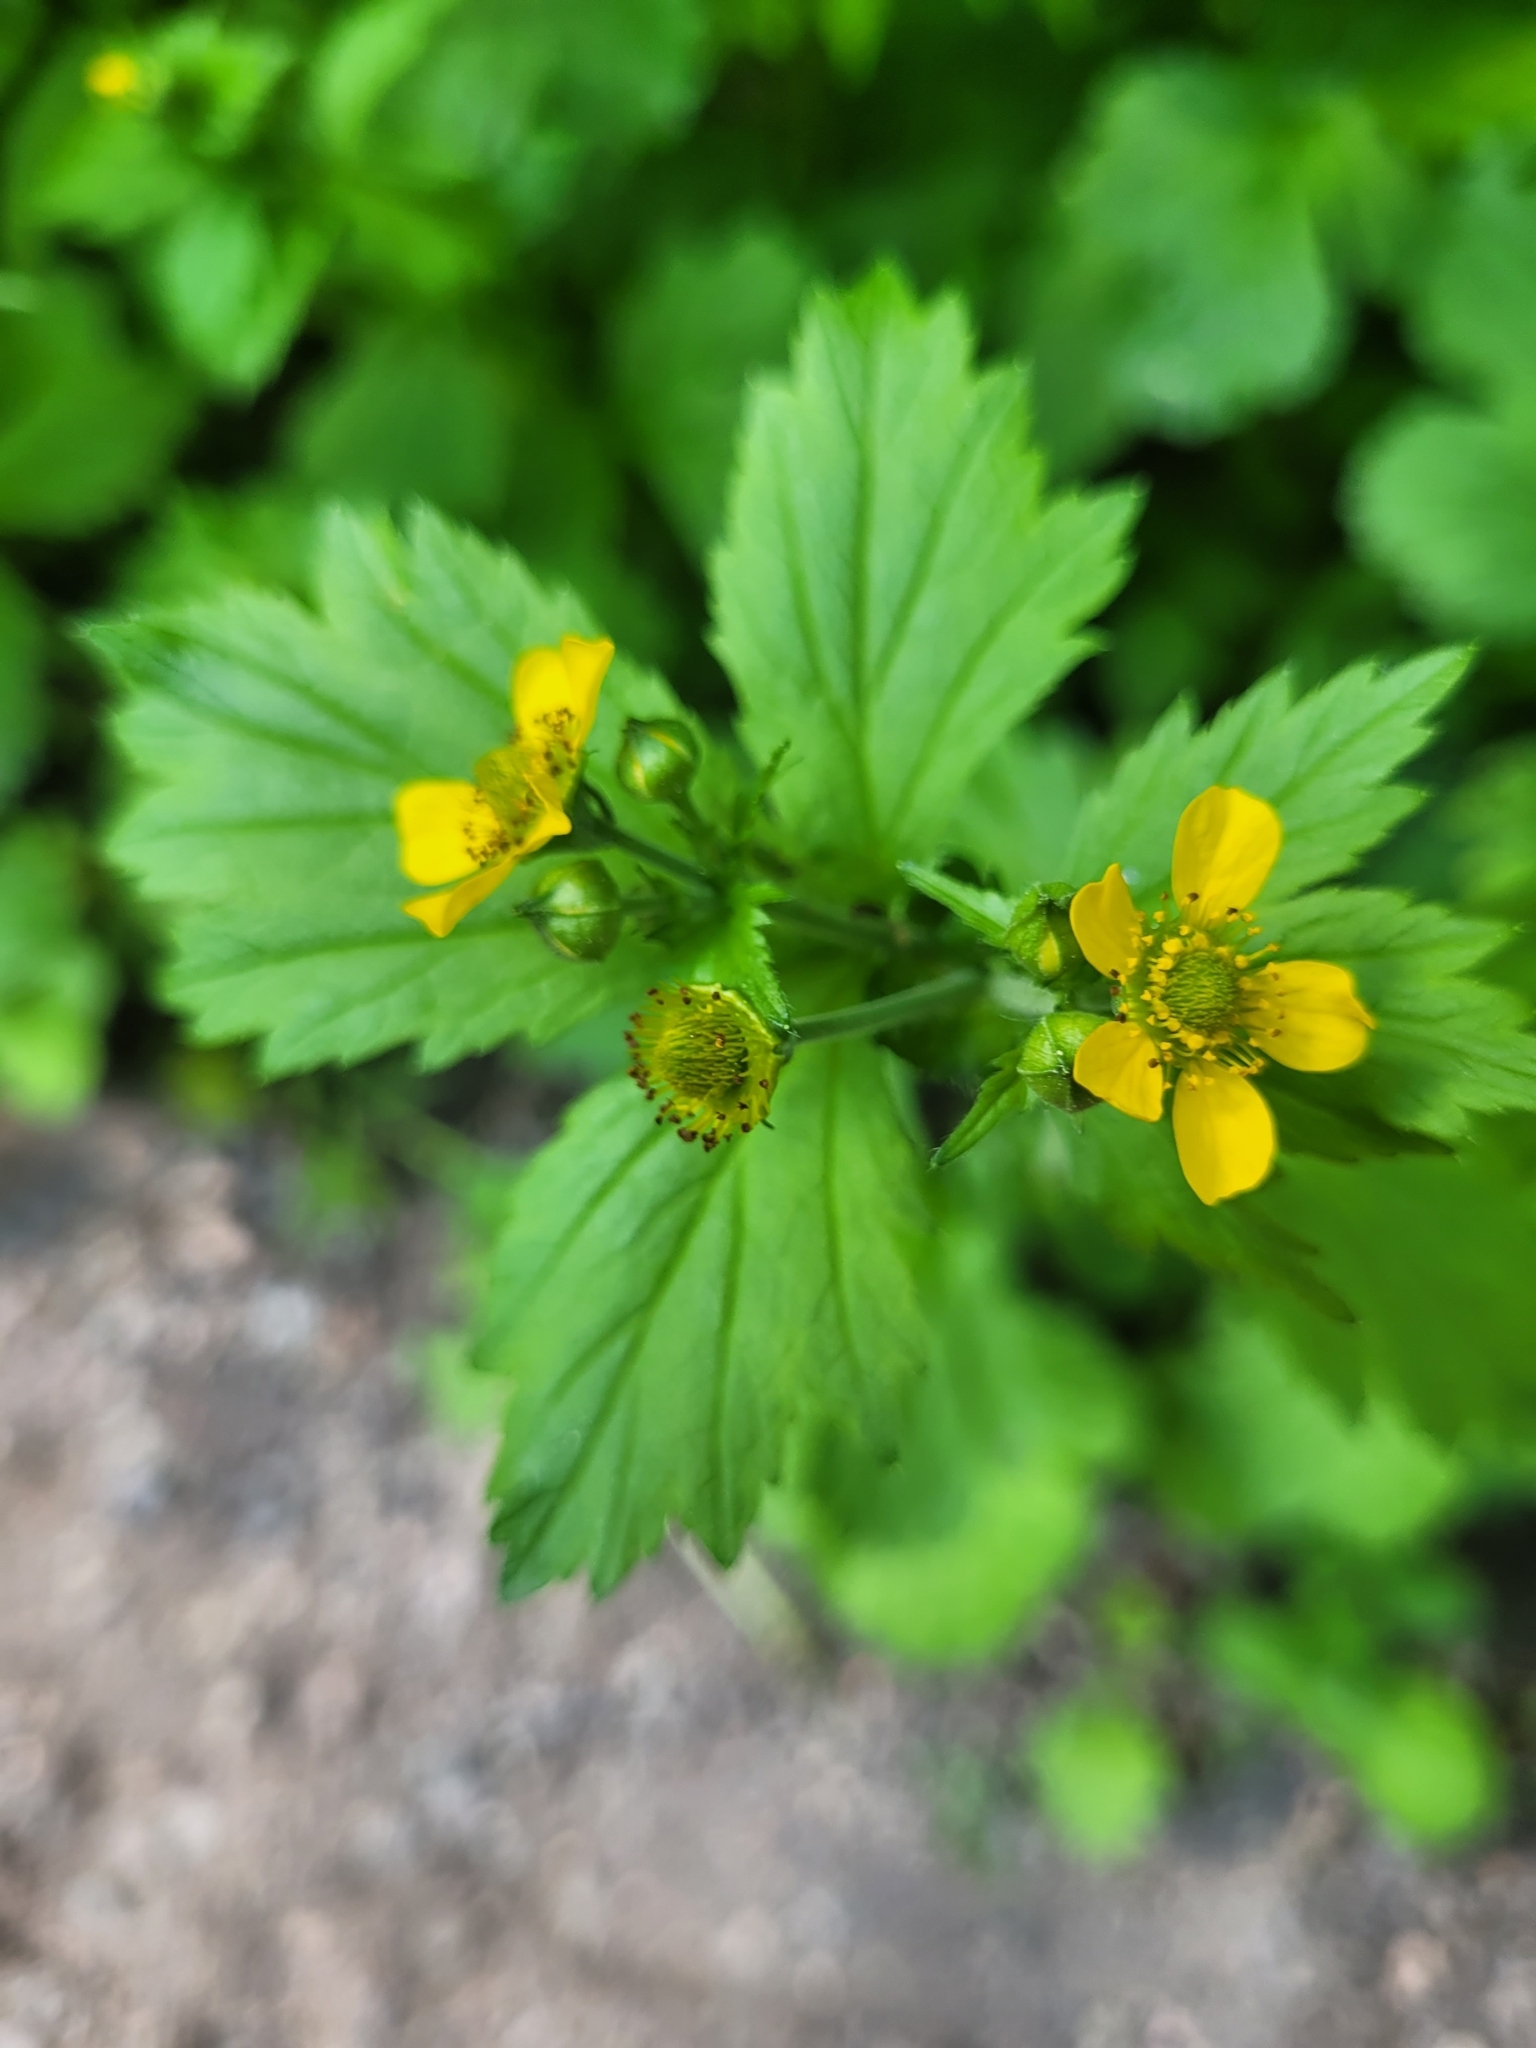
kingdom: Plantae
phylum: Tracheophyta
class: Magnoliopsida
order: Rosales
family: Rosaceae
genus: Geum
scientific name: Geum macrophyllum
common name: Large-leaved avens
